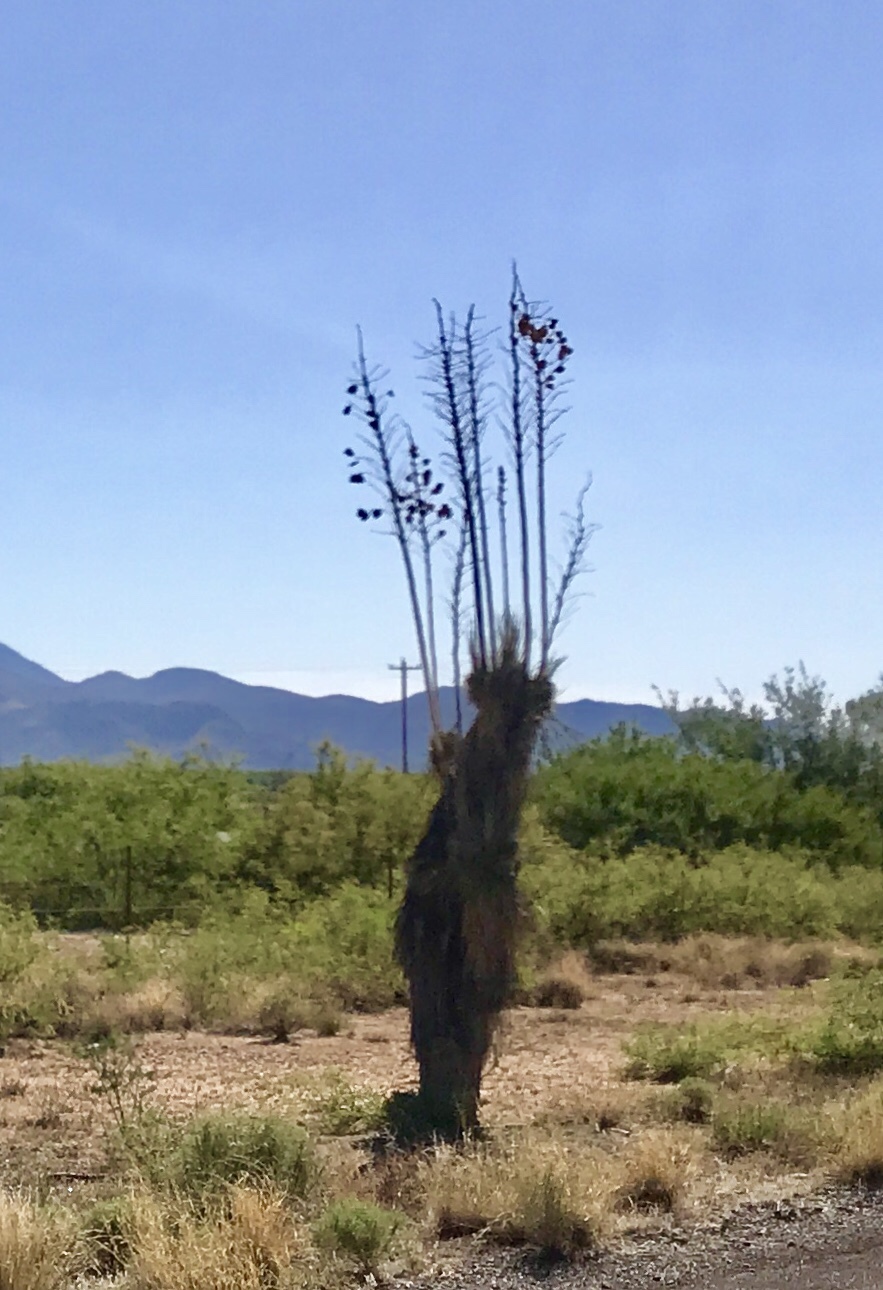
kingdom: Plantae
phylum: Tracheophyta
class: Liliopsida
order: Asparagales
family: Asparagaceae
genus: Yucca
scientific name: Yucca elata
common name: Palmella
